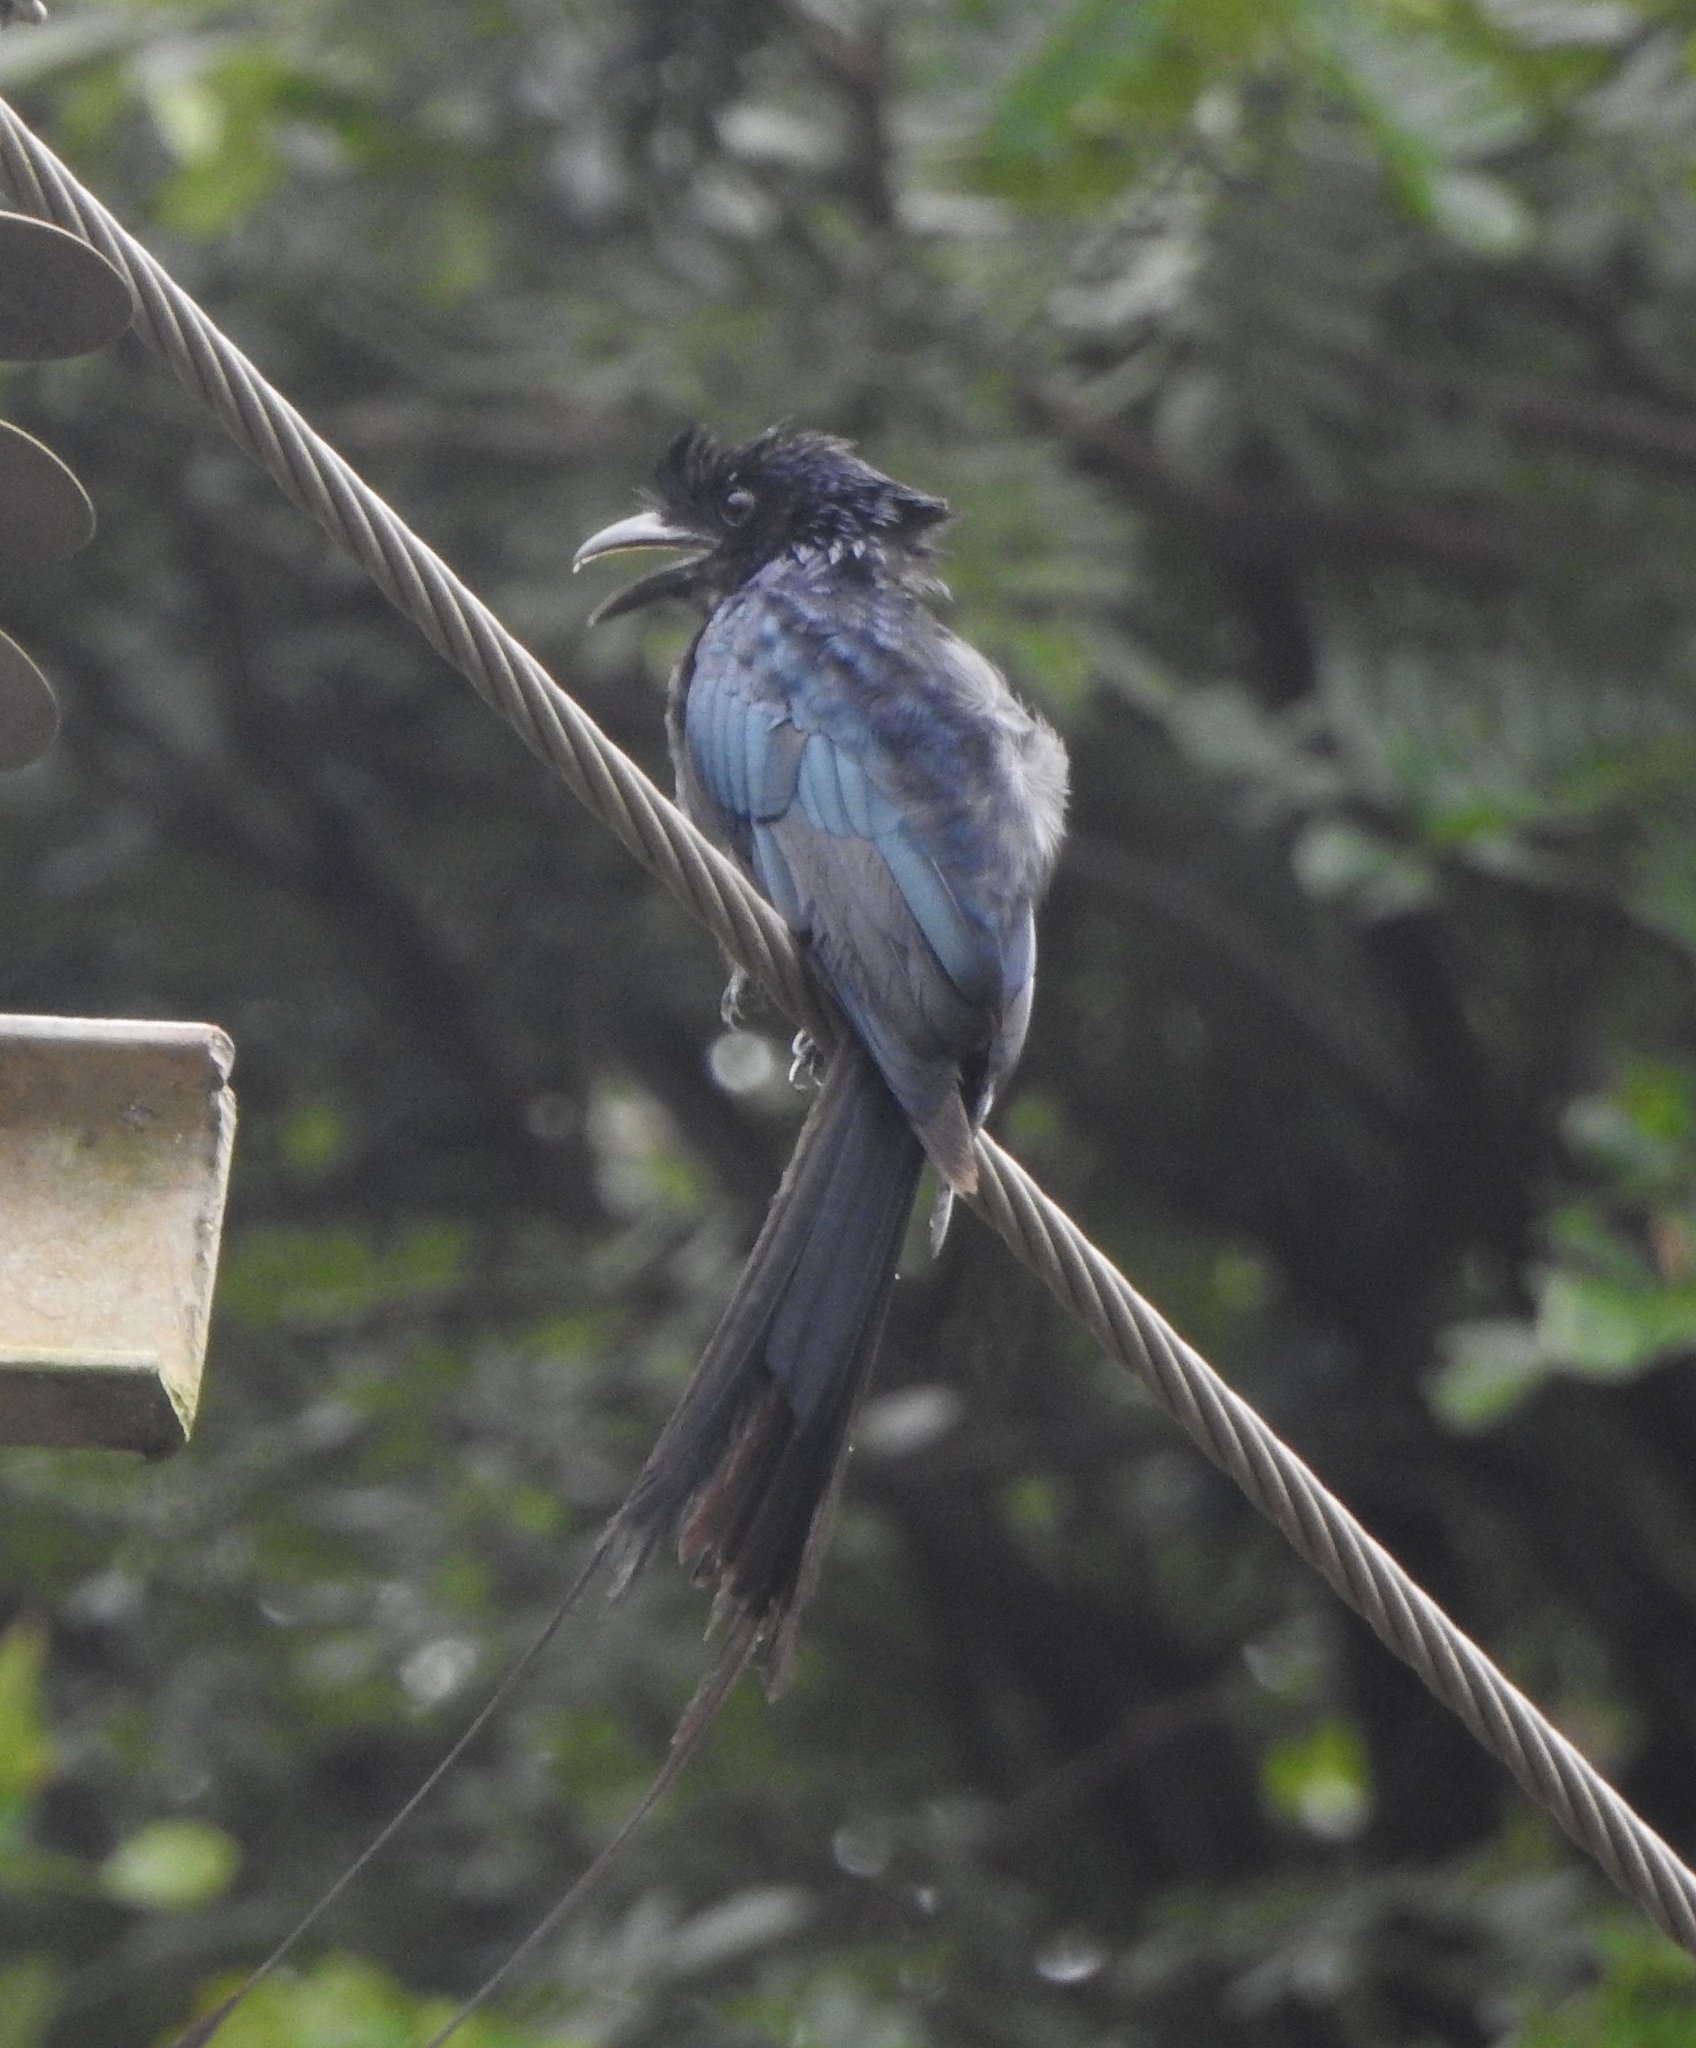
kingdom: Animalia
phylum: Chordata
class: Aves
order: Passeriformes
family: Dicruridae
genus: Dicrurus
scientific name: Dicrurus paradiseus
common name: Greater racket-tailed drongo
